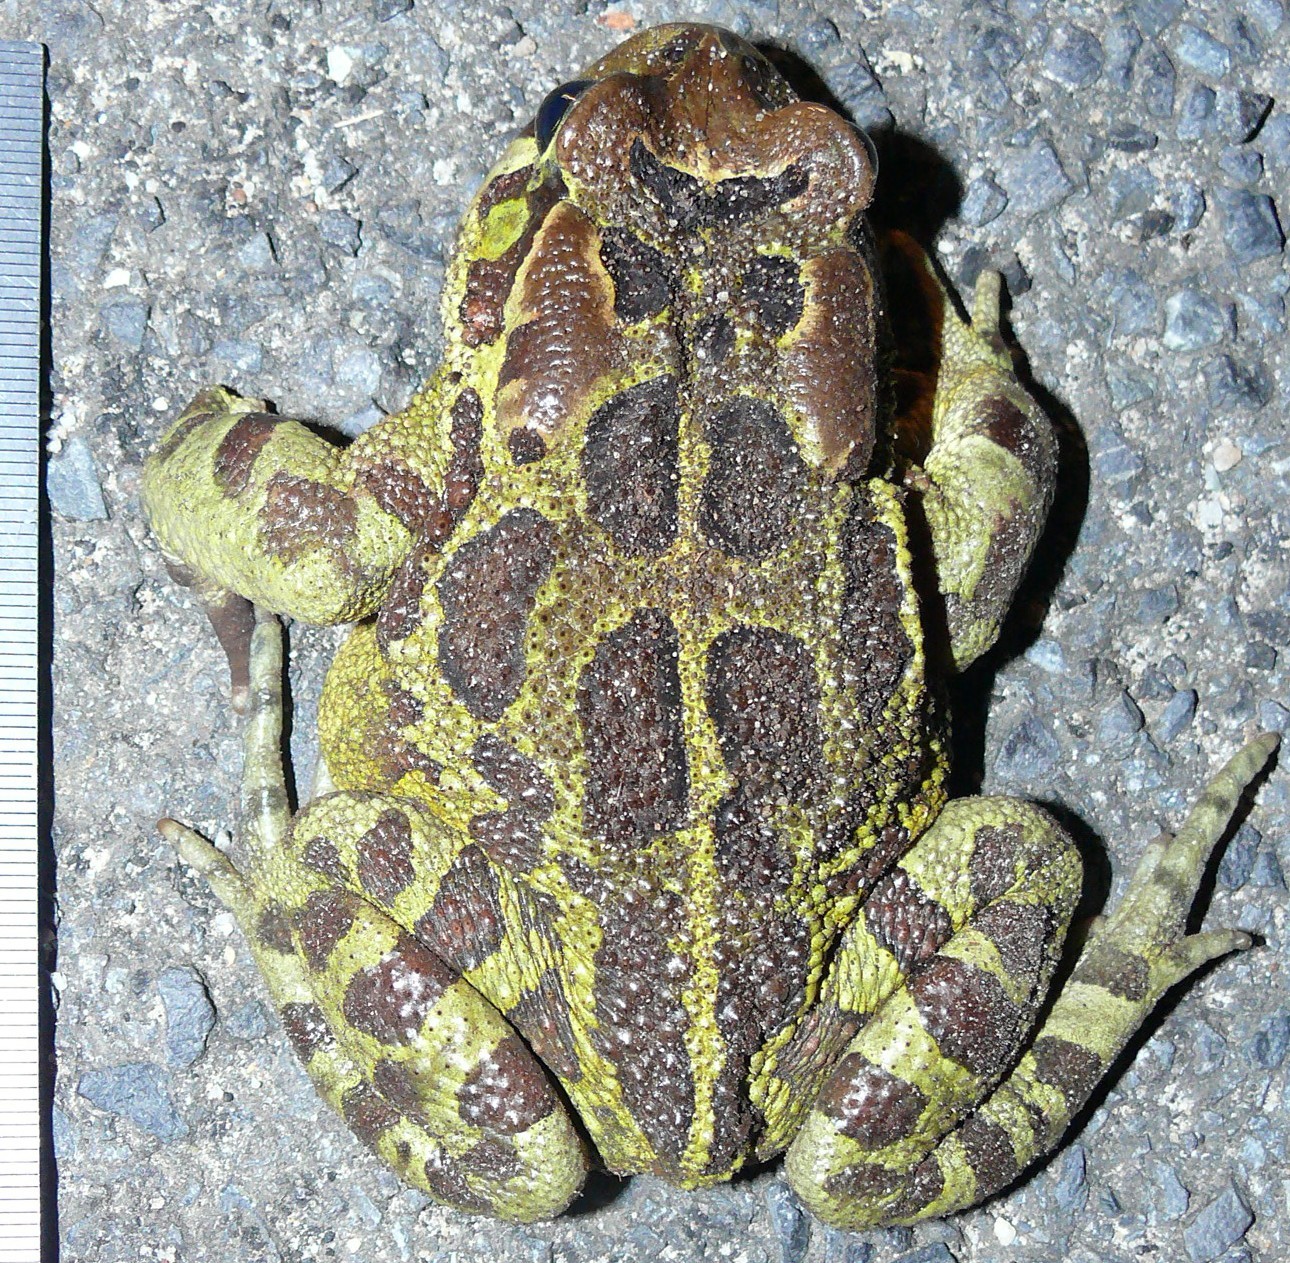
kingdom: Animalia
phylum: Chordata
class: Amphibia
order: Anura
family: Bufonidae
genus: Sclerophrys
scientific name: Sclerophrys pantherina
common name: Panther toad
